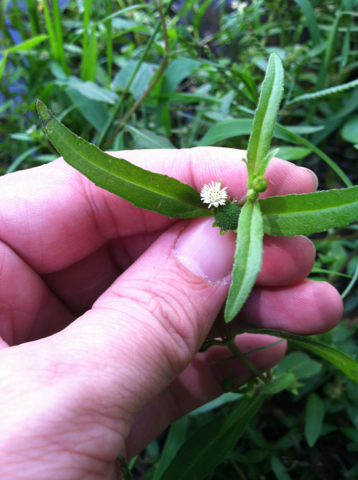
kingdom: Plantae
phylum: Tracheophyta
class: Magnoliopsida
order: Asterales
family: Asteraceae
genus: Eclipta
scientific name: Eclipta prostrata
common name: False daisy
